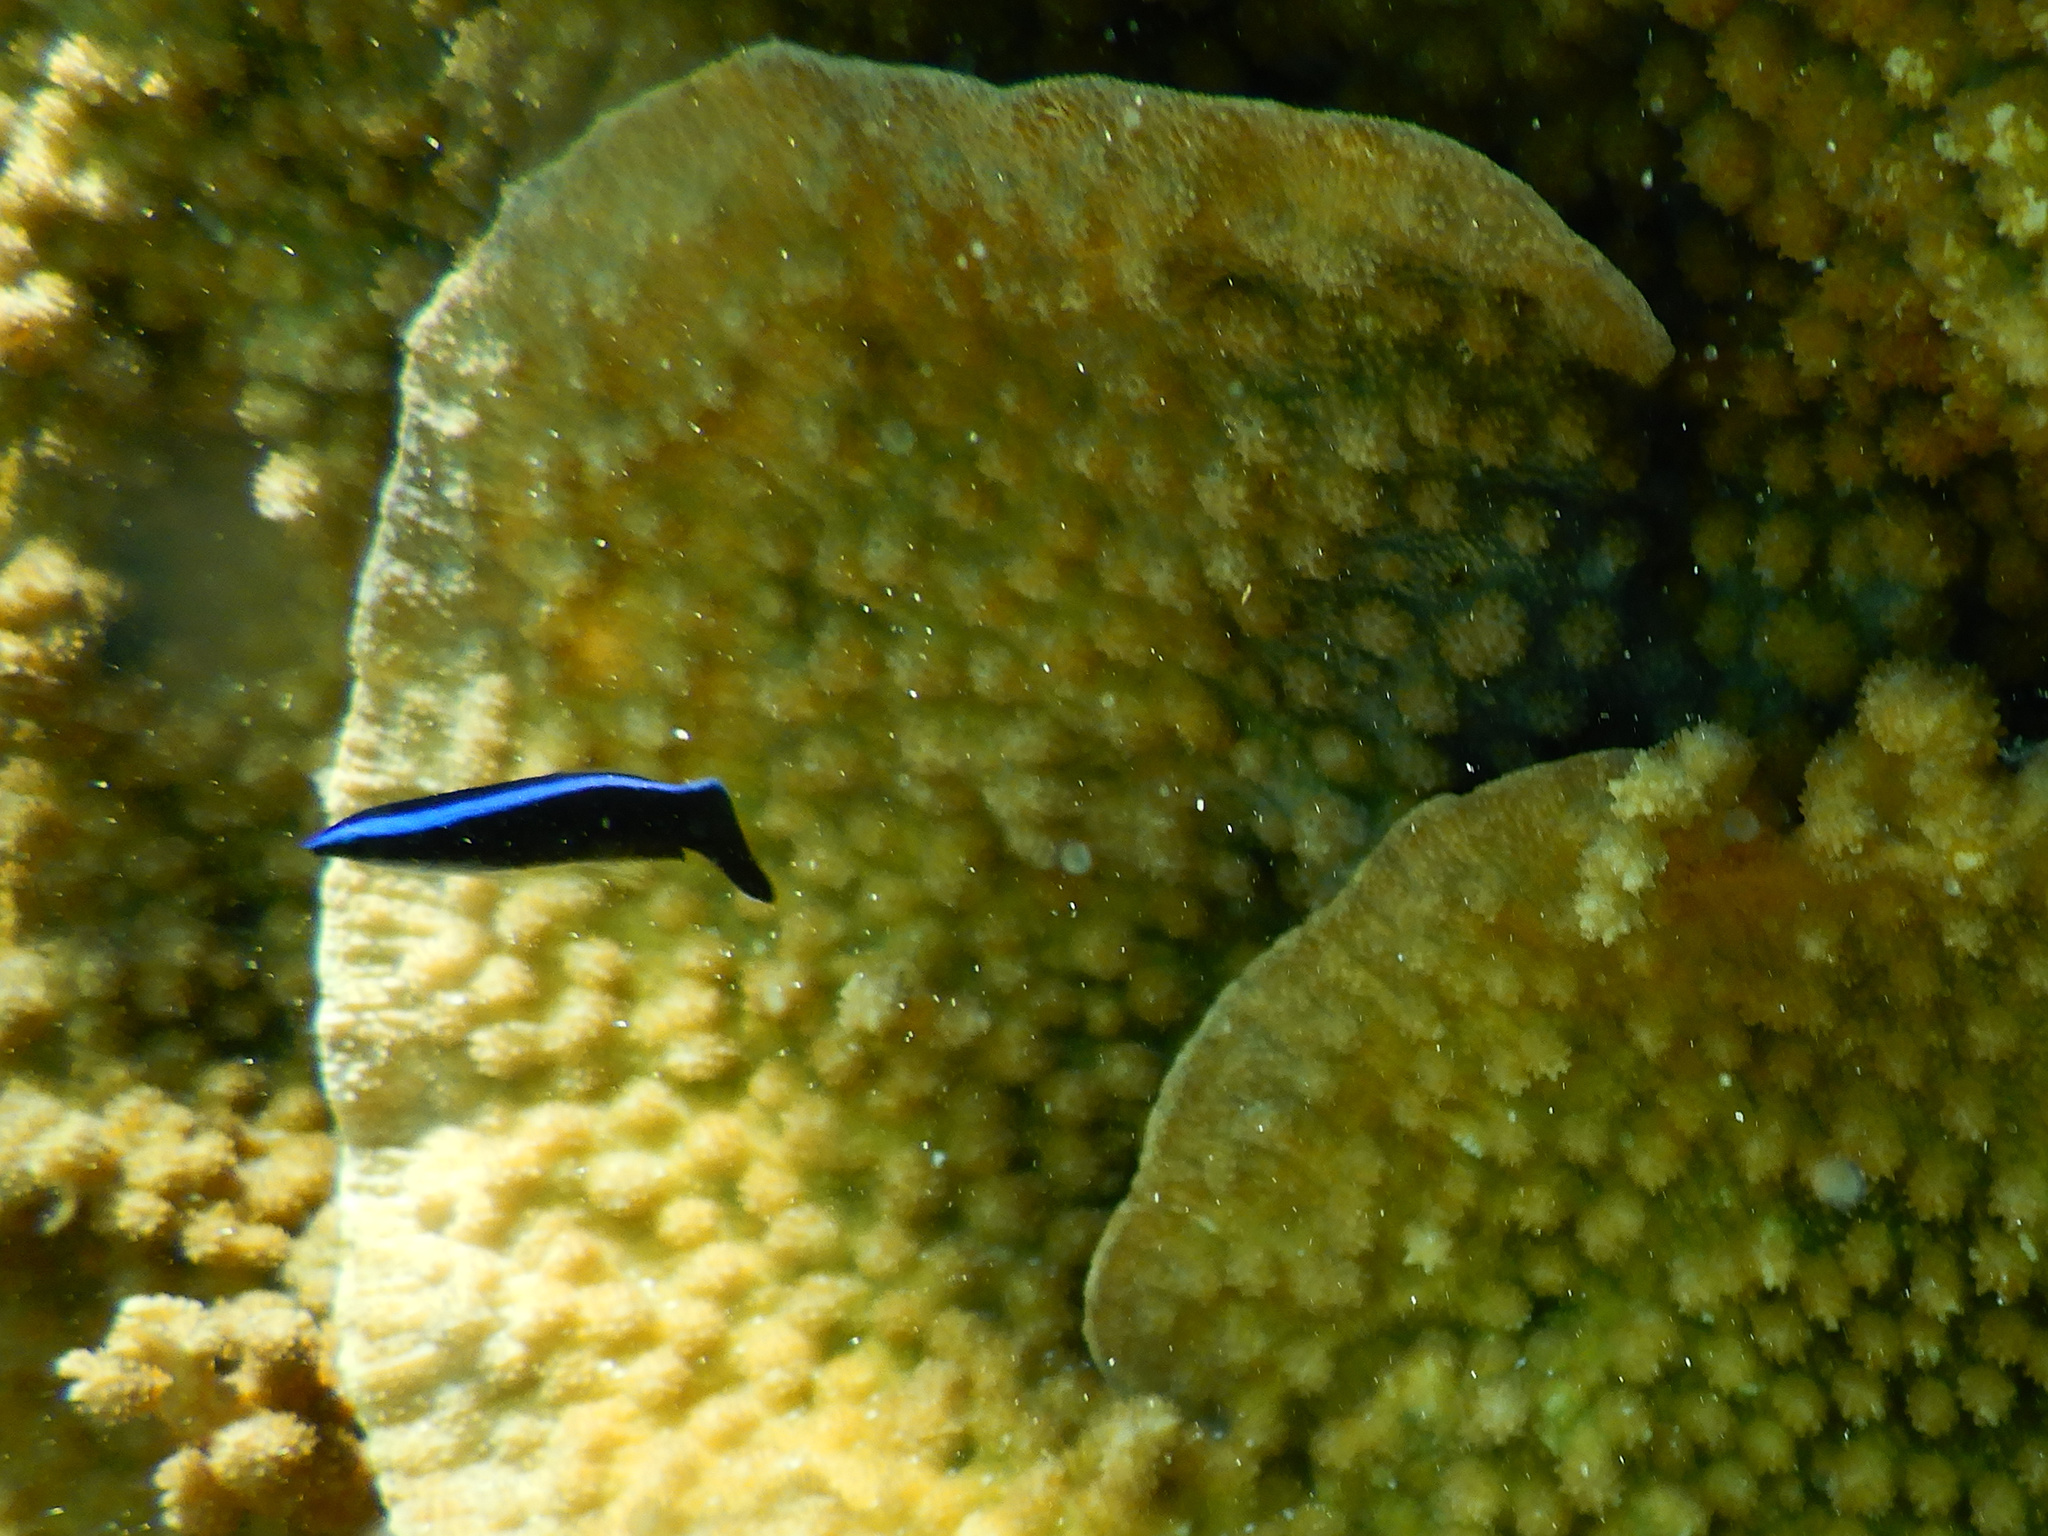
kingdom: Animalia
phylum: Chordata
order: Perciformes
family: Labridae
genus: Labroides
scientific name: Labroides dimidiatus
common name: Blue diesel wrasse
